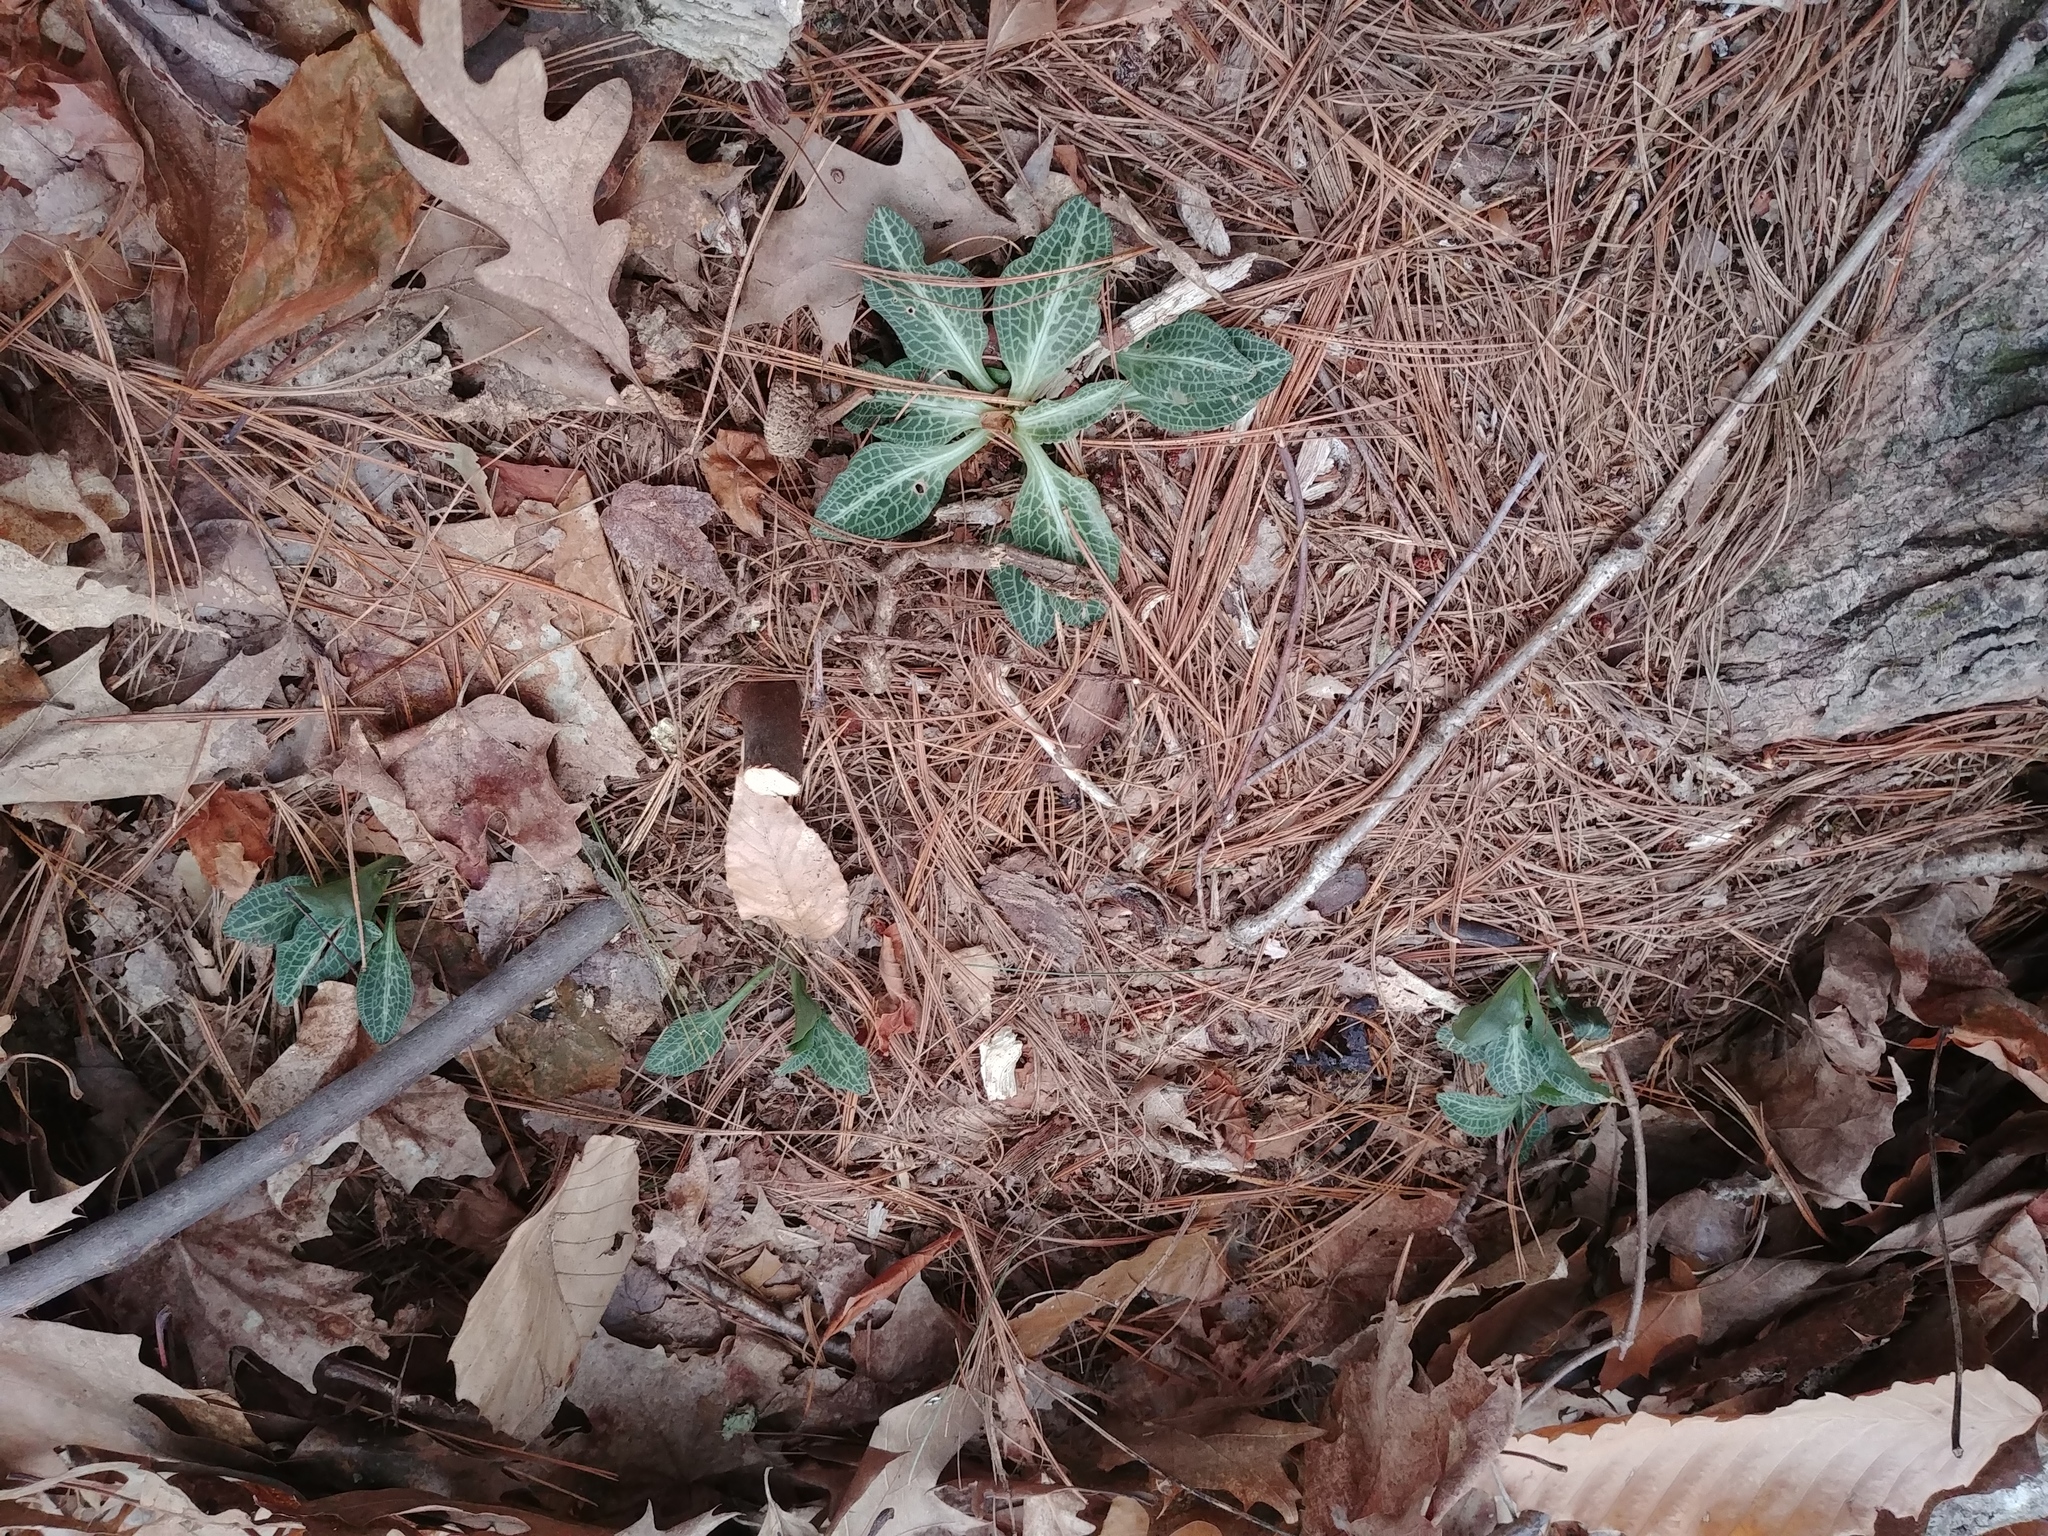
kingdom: Plantae
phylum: Tracheophyta
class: Liliopsida
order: Asparagales
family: Orchidaceae
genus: Goodyera
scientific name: Goodyera pubescens
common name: Downy rattlesnake-plantain
